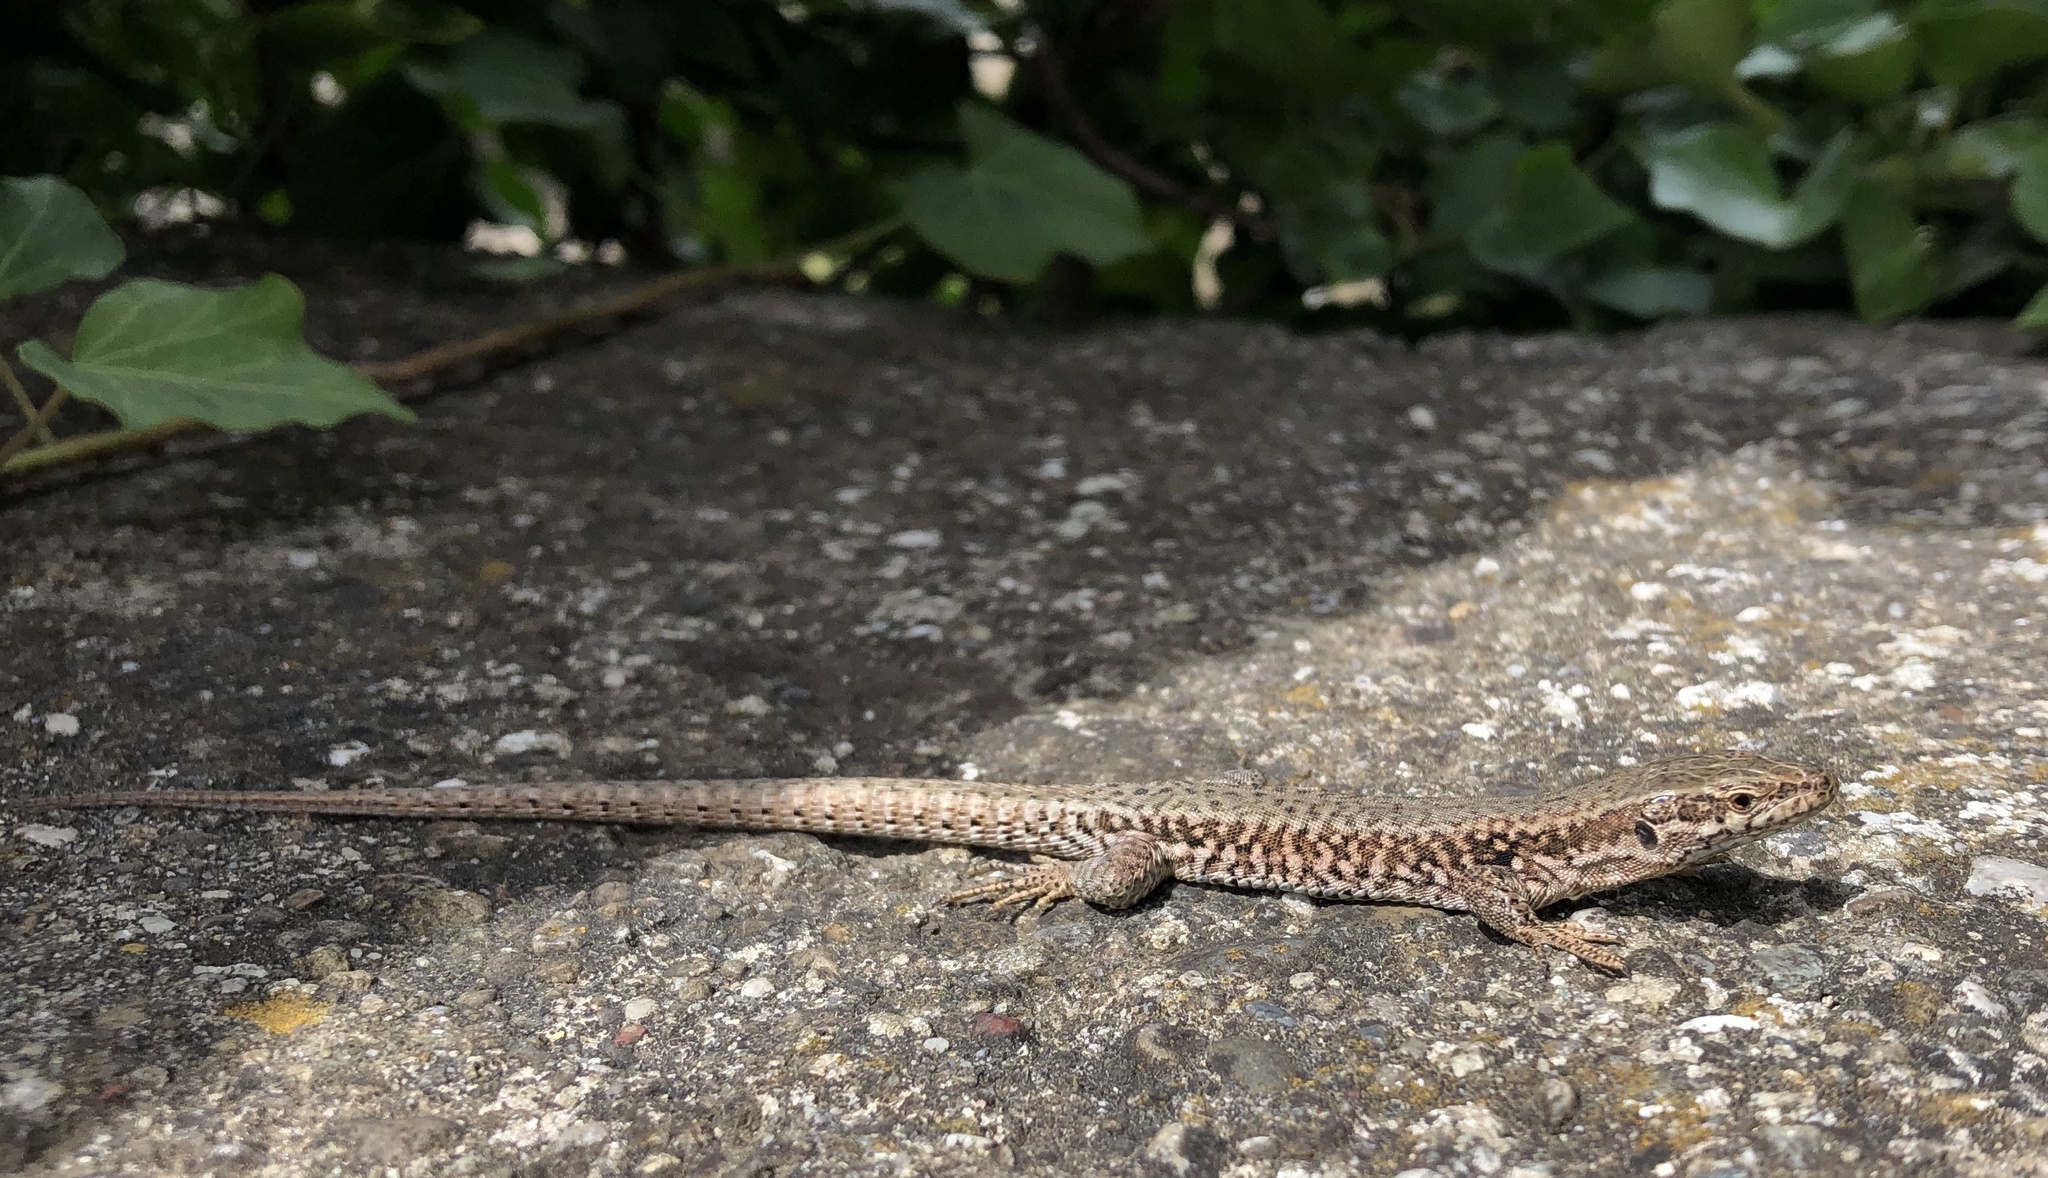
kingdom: Animalia
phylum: Chordata
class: Squamata
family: Lacertidae
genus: Podarcis
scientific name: Podarcis muralis
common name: Common wall lizard
